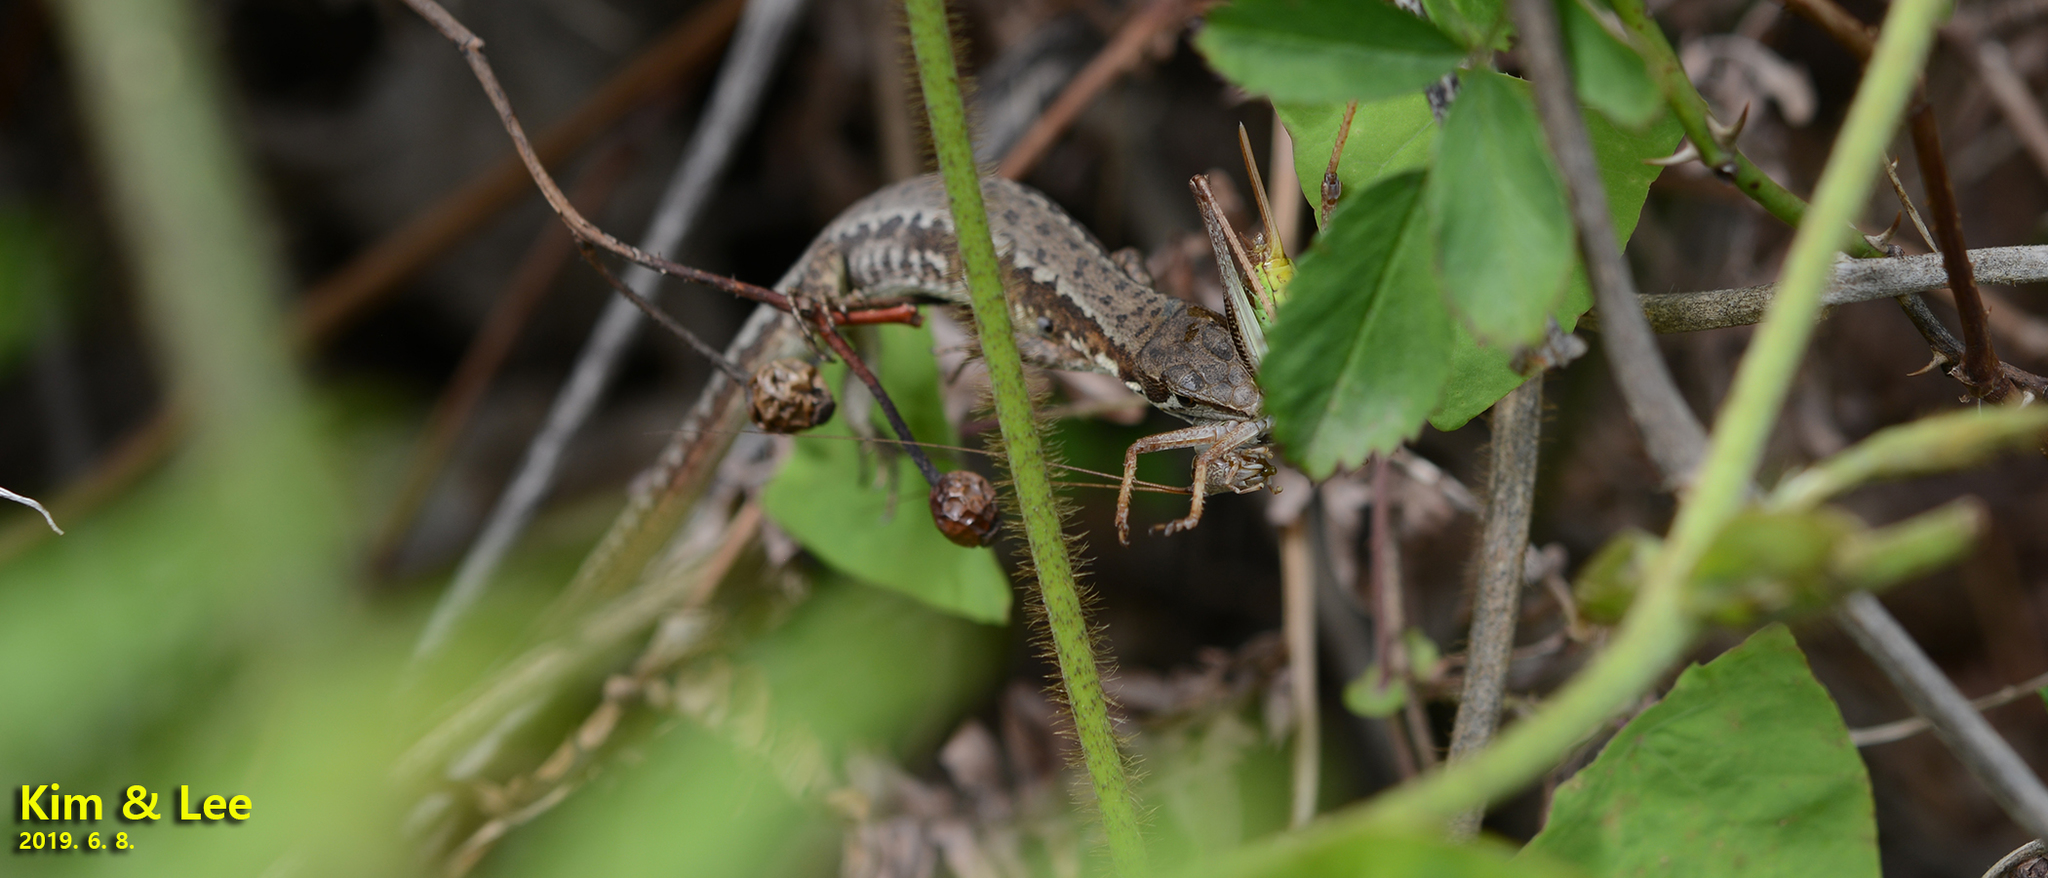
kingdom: Animalia
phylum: Chordata
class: Squamata
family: Lacertidae
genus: Takydromus
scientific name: Takydromus amurensis
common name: Amur grass lizard
